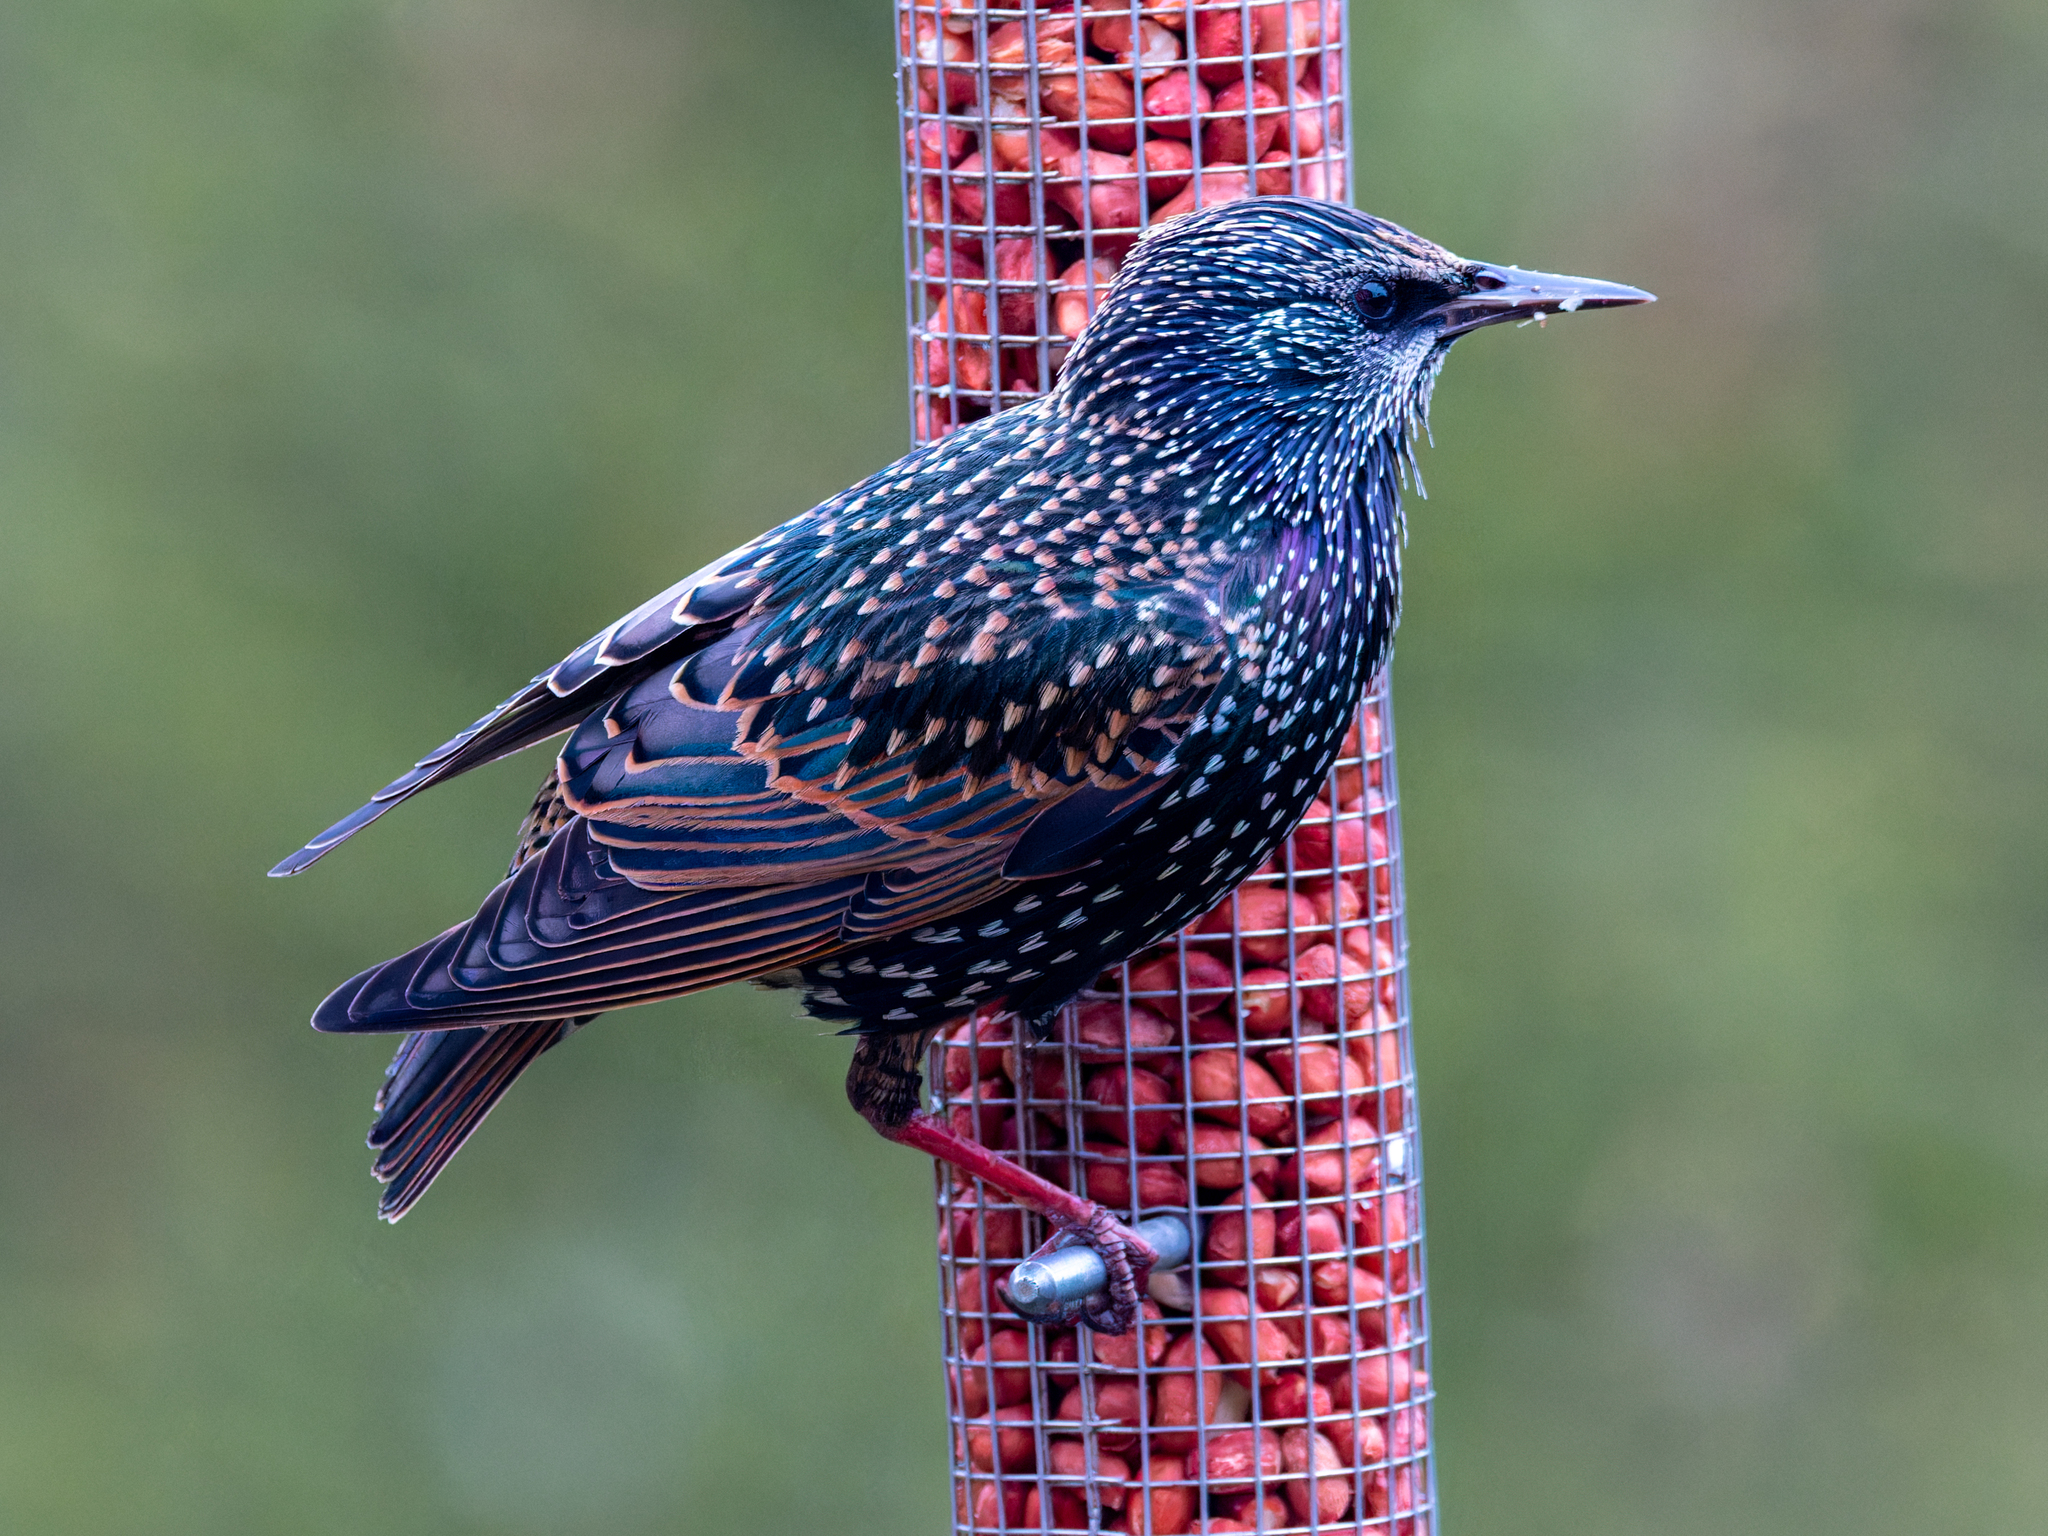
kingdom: Animalia
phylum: Chordata
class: Aves
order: Passeriformes
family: Sturnidae
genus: Sturnus
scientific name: Sturnus vulgaris
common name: Common starling
